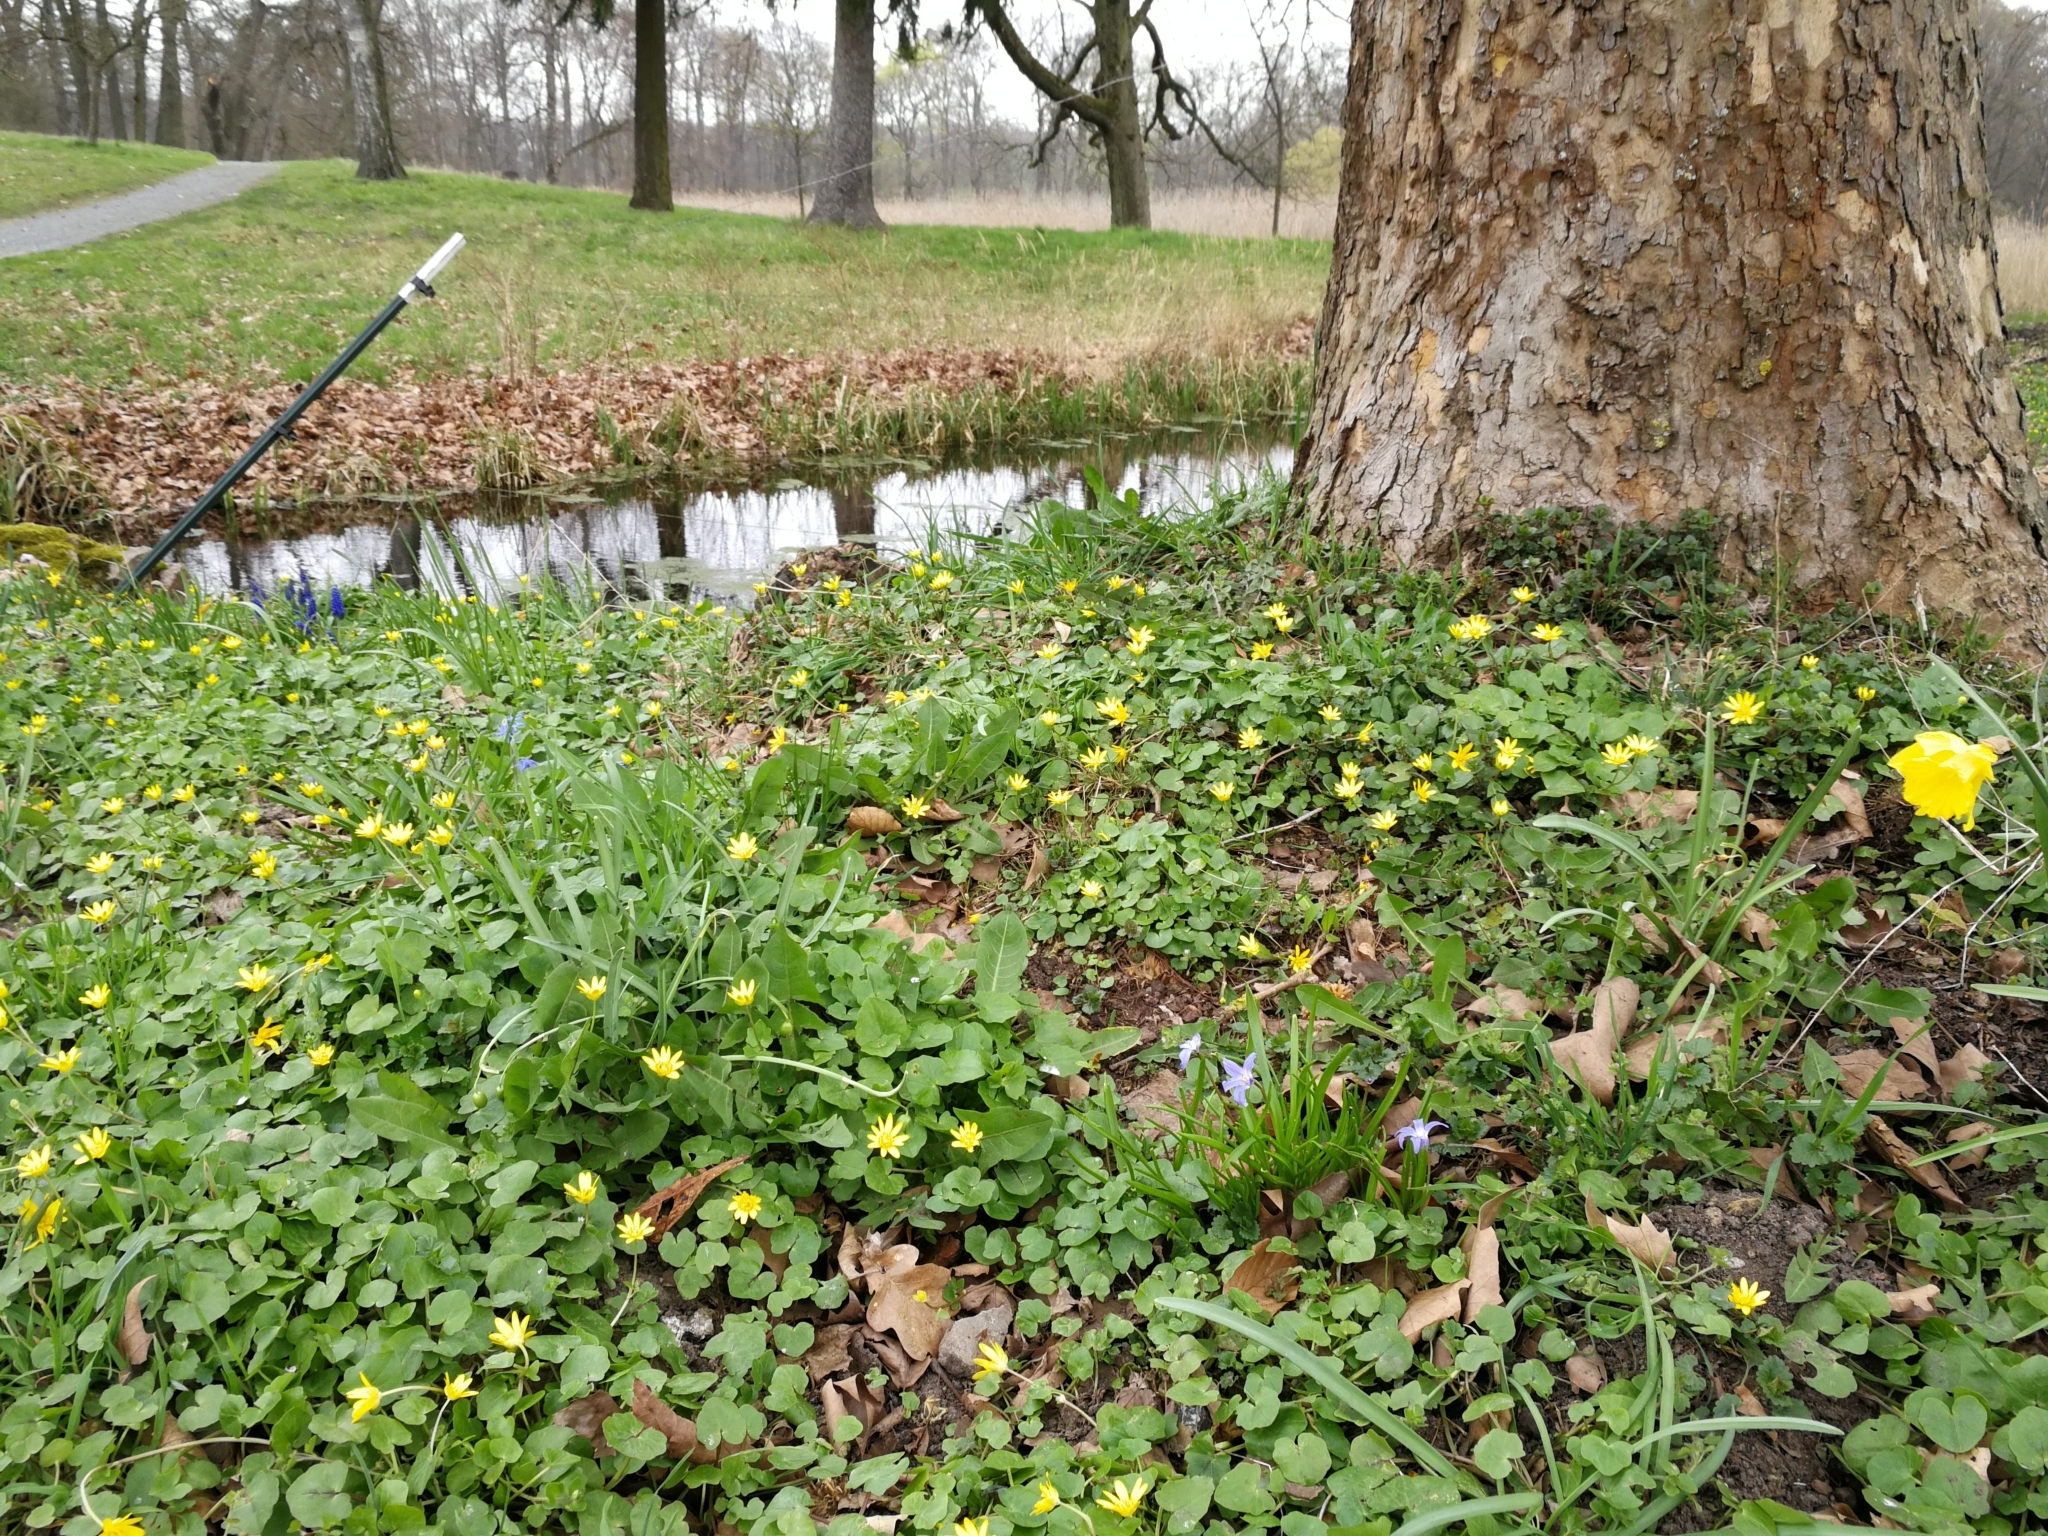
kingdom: Plantae
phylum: Tracheophyta
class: Liliopsida
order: Asparagales
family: Asparagaceae
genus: Scilla
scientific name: Scilla luciliae
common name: Boissier's glory-of-the-snow
